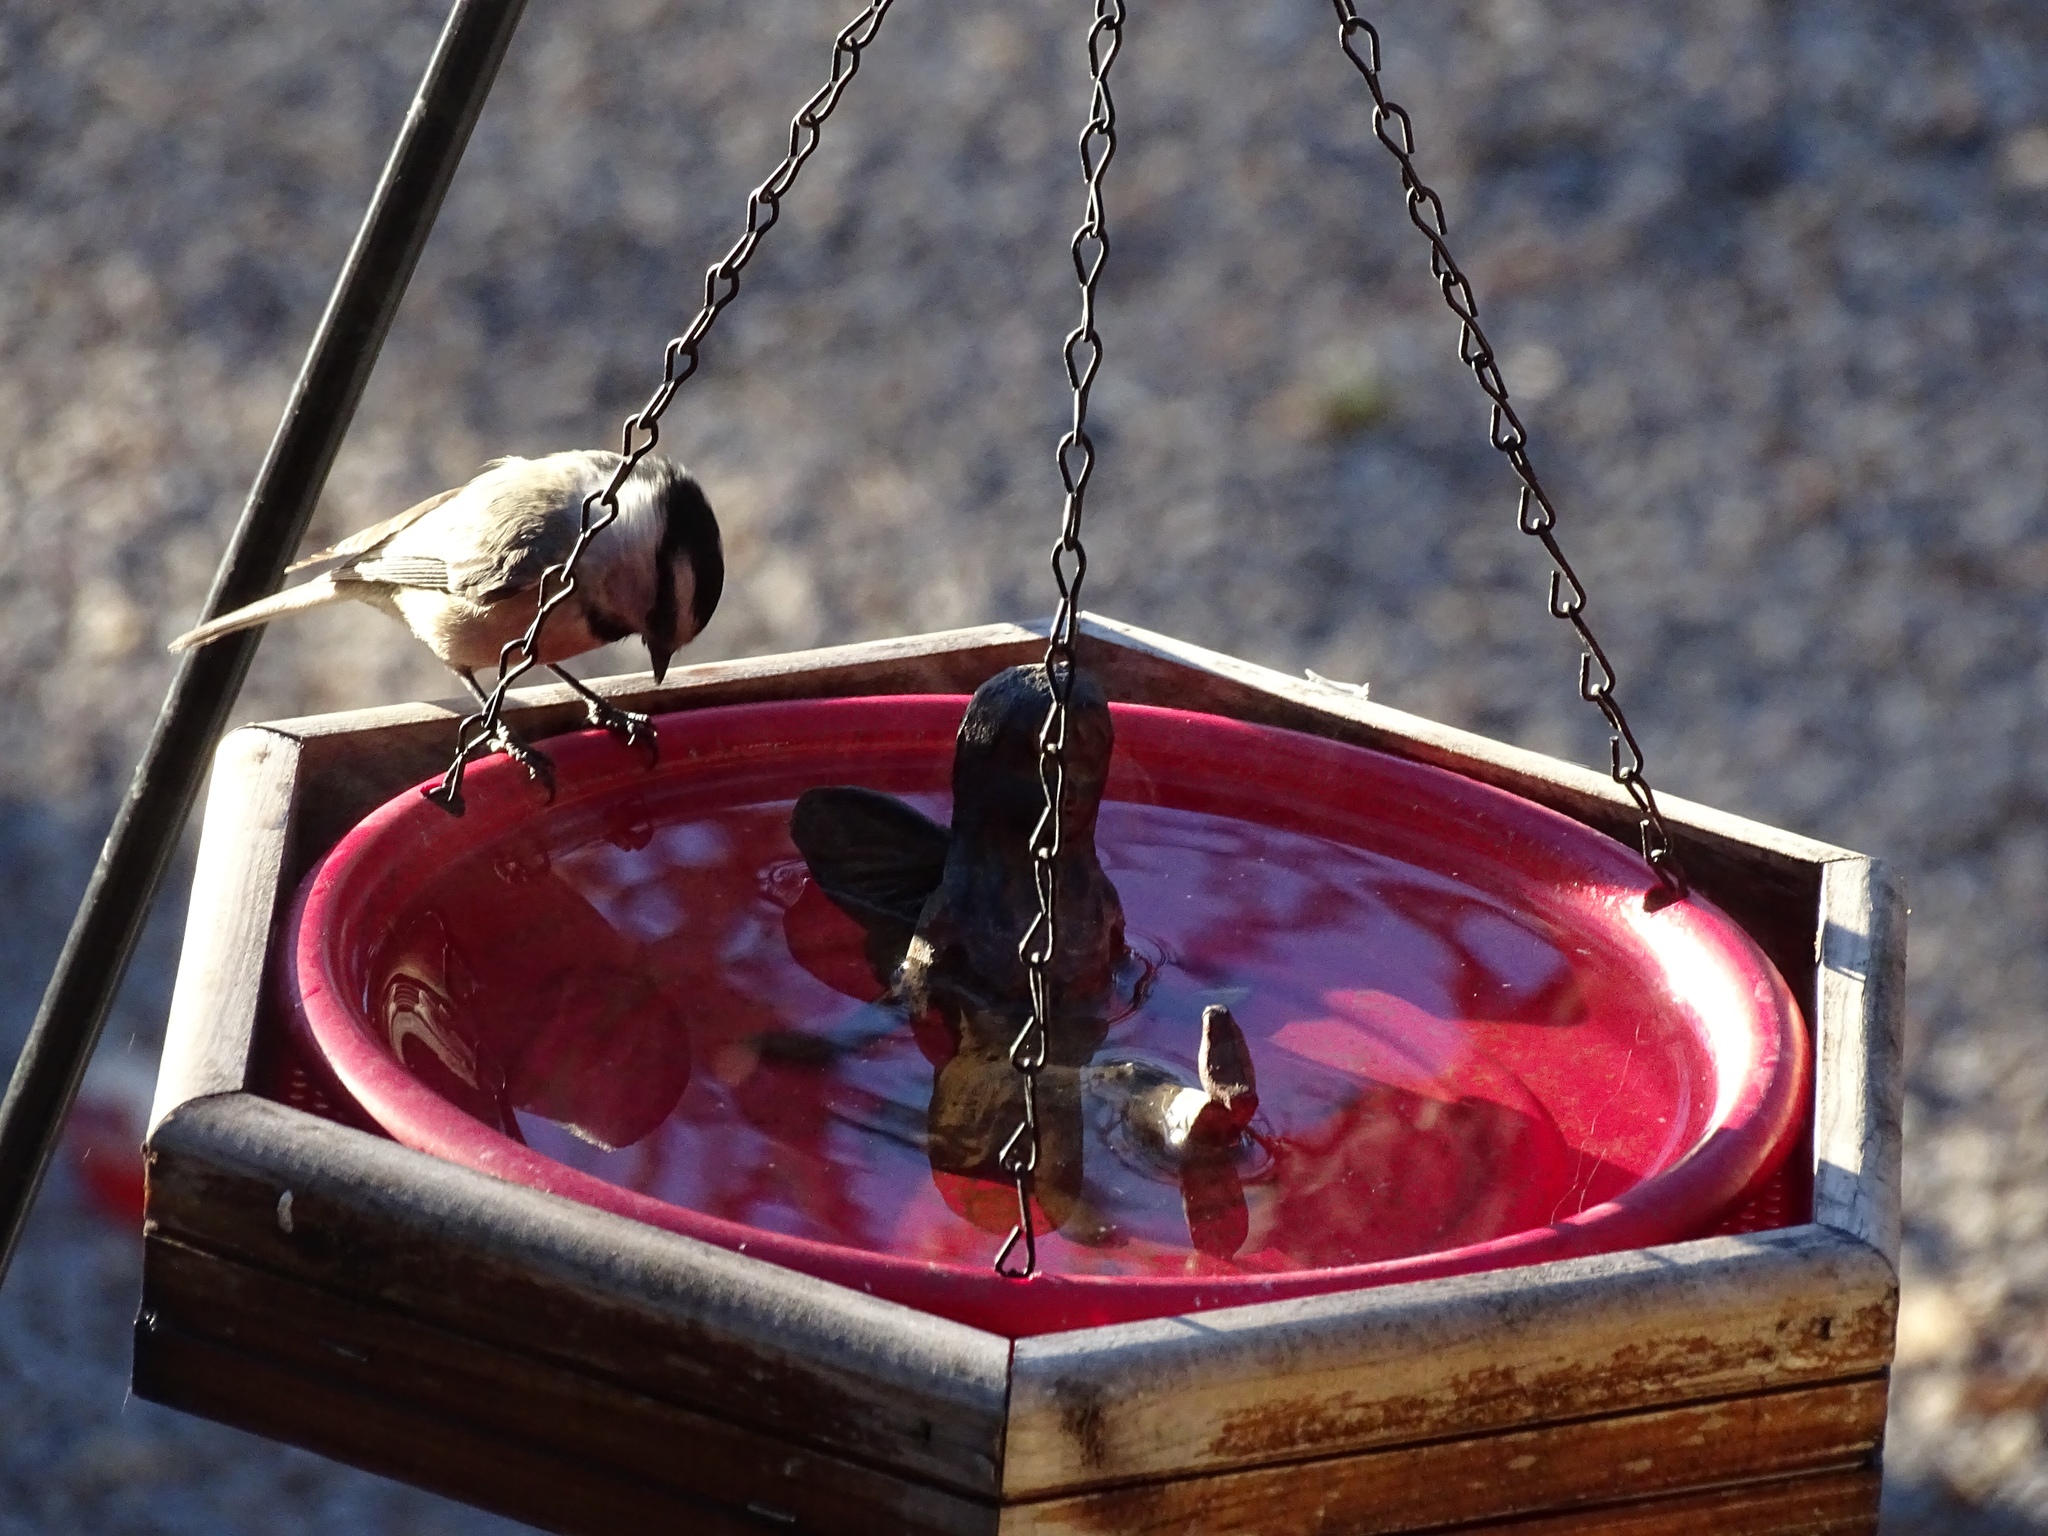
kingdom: Animalia
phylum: Chordata
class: Aves
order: Passeriformes
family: Paridae
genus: Poecile
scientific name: Poecile gambeli
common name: Mountain chickadee
